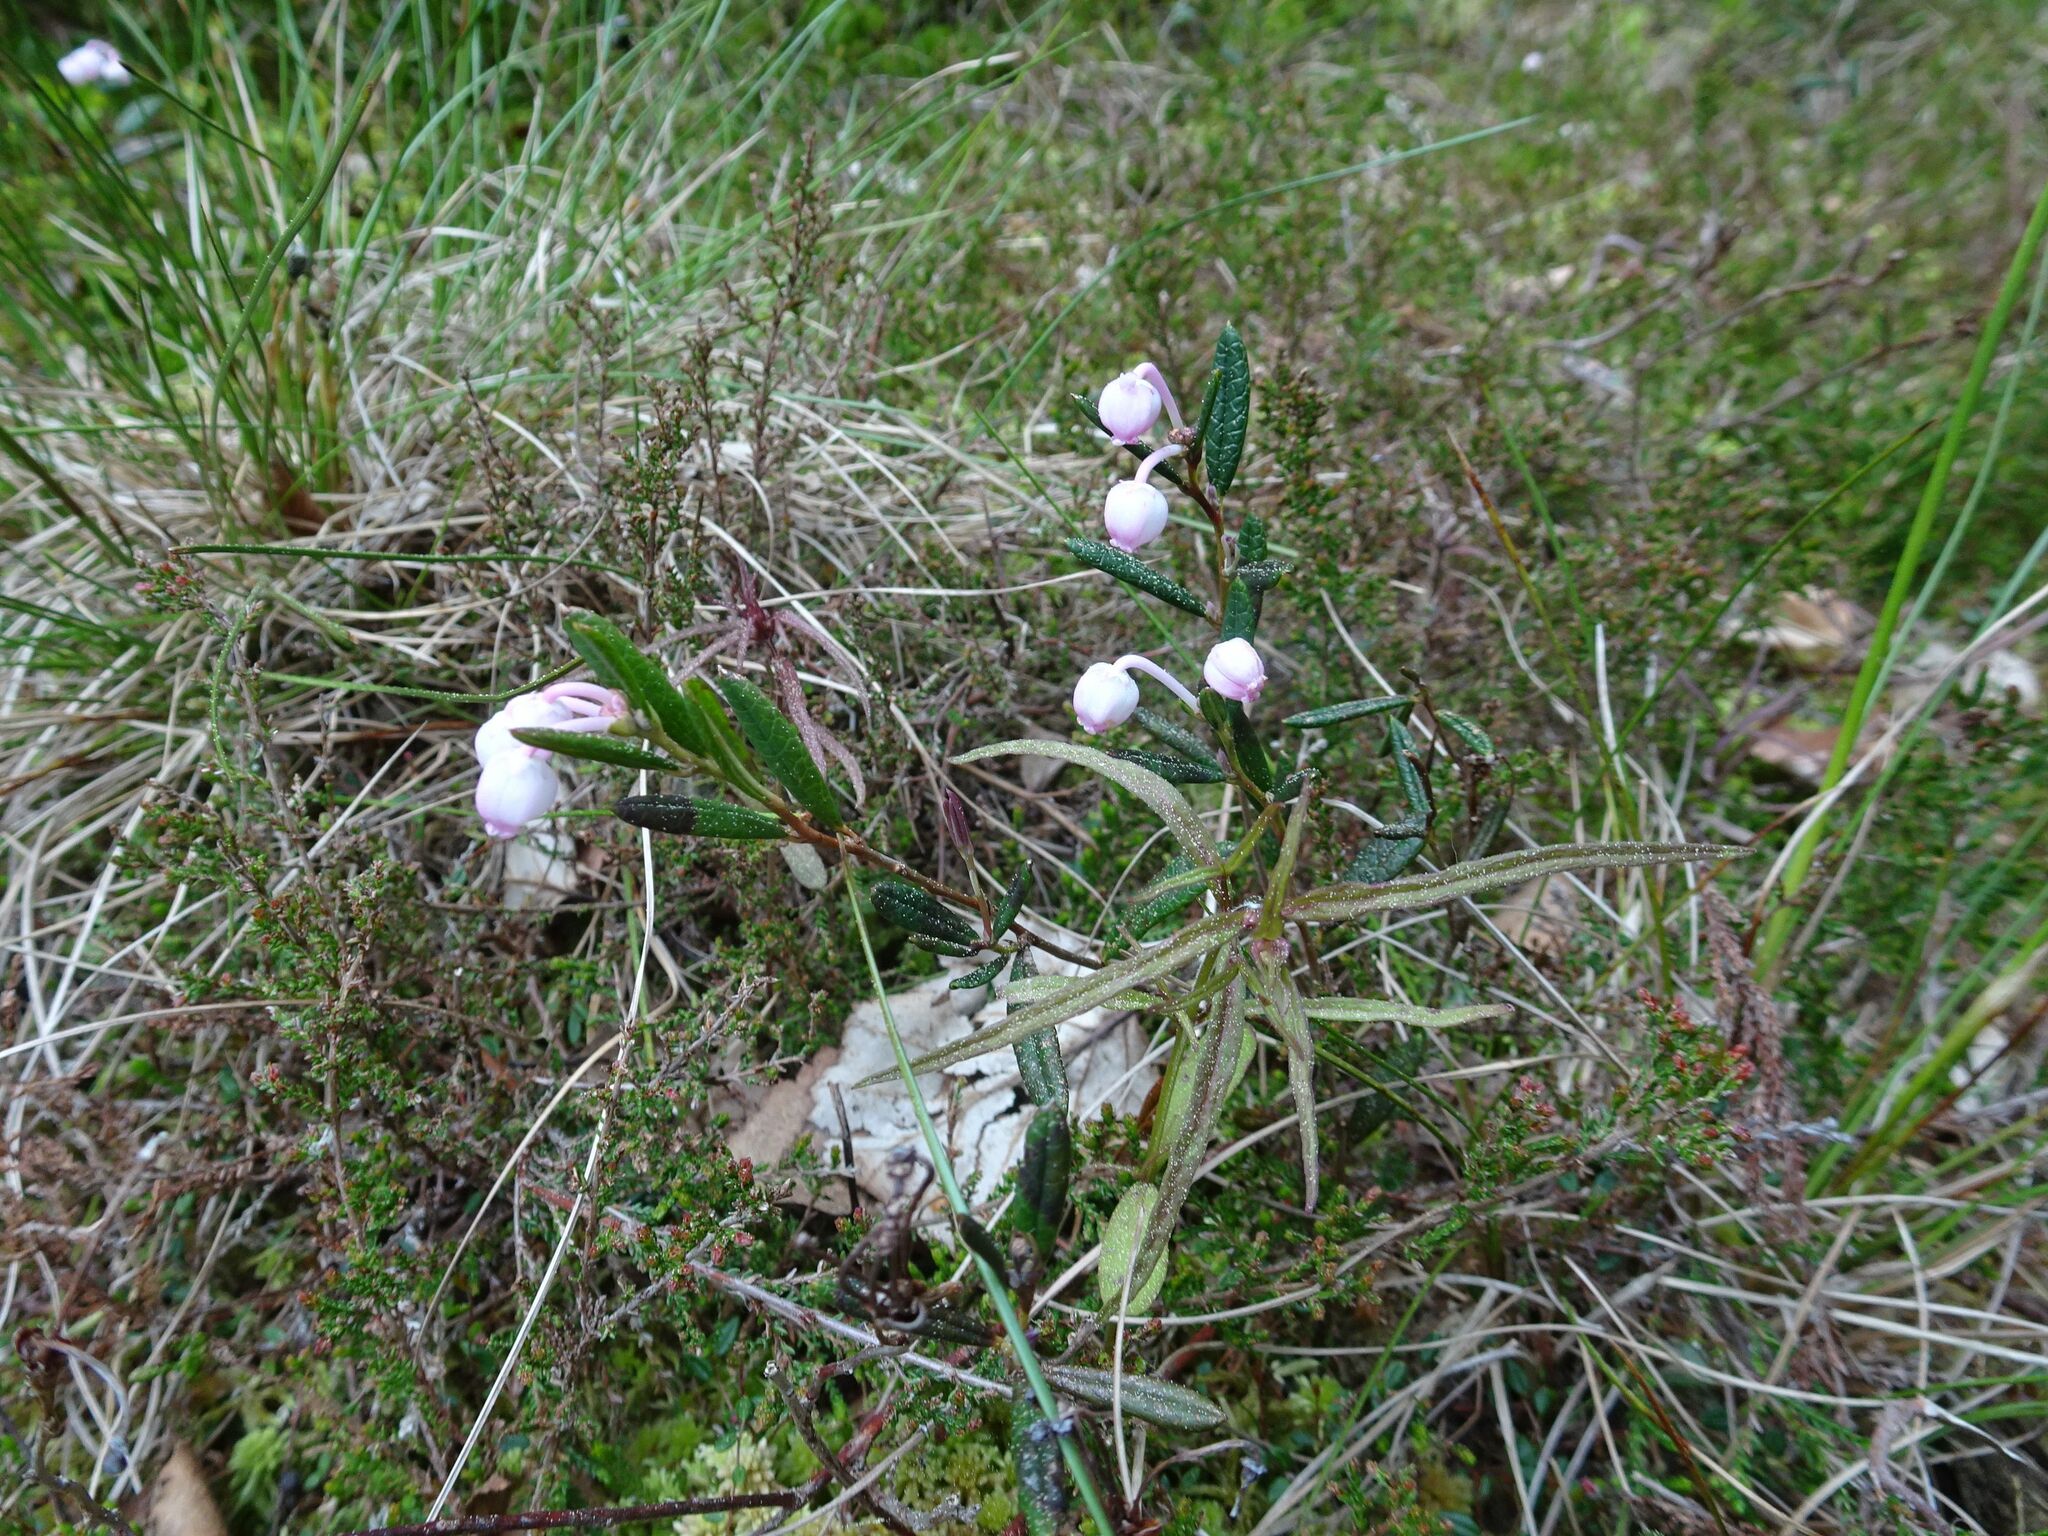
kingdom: Plantae
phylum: Tracheophyta
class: Magnoliopsida
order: Ericales
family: Ericaceae
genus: Andromeda
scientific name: Andromeda polifolia
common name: Bog-rosemary
